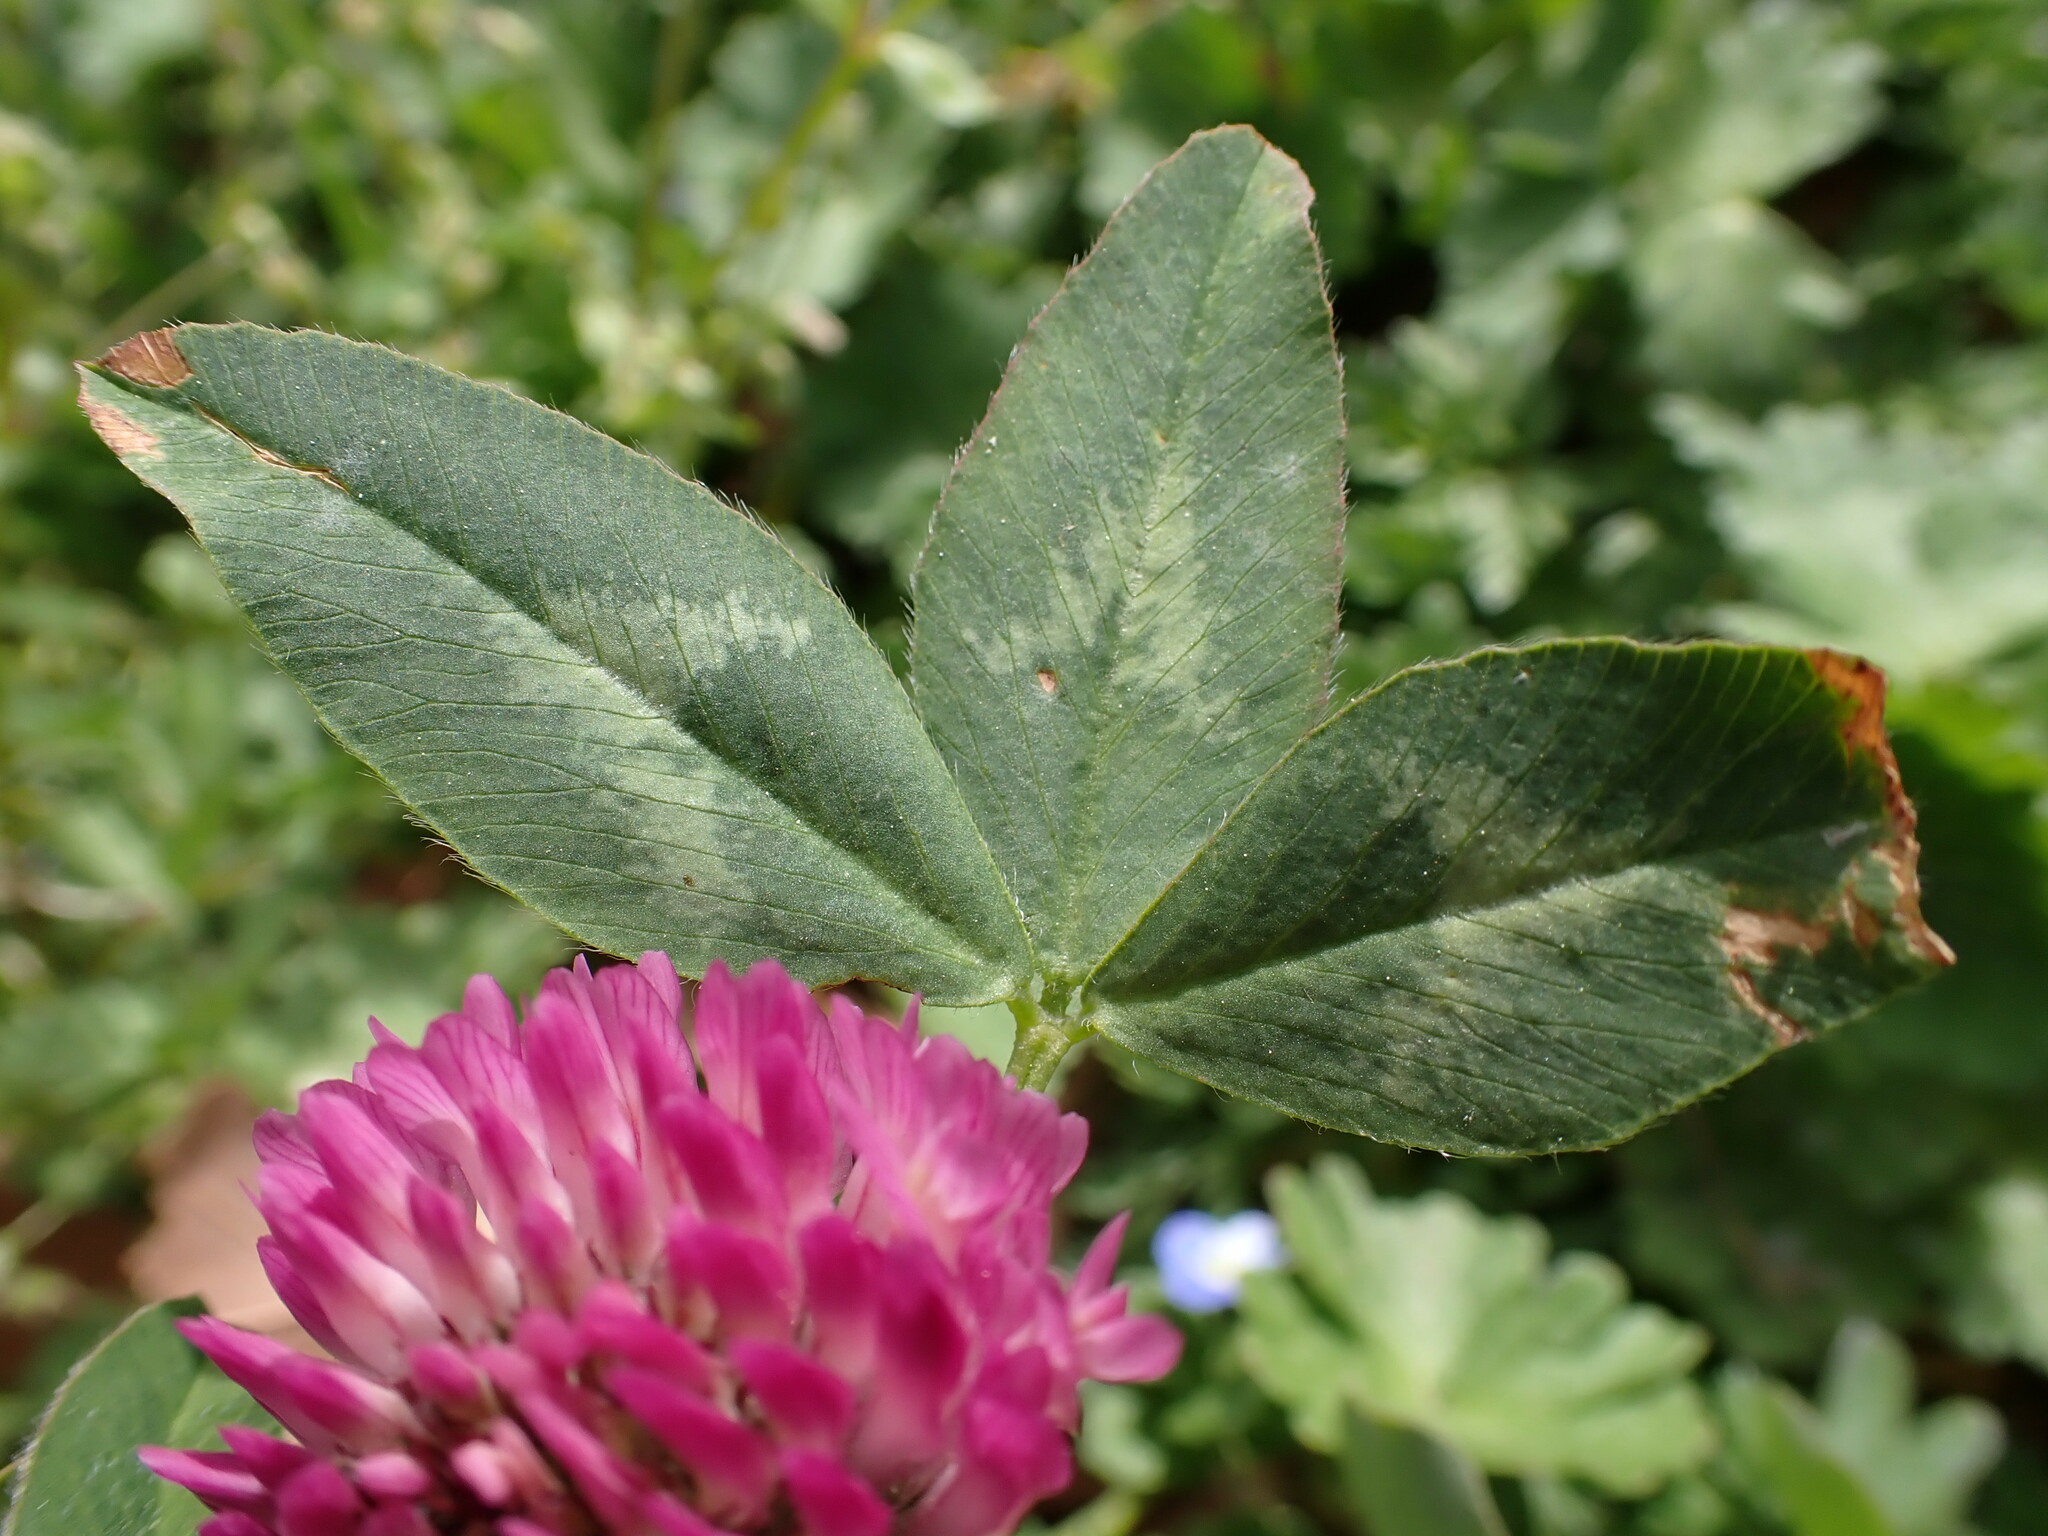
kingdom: Plantae
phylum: Tracheophyta
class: Magnoliopsida
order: Fabales
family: Fabaceae
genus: Trifolium
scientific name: Trifolium pratense
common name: Red clover
